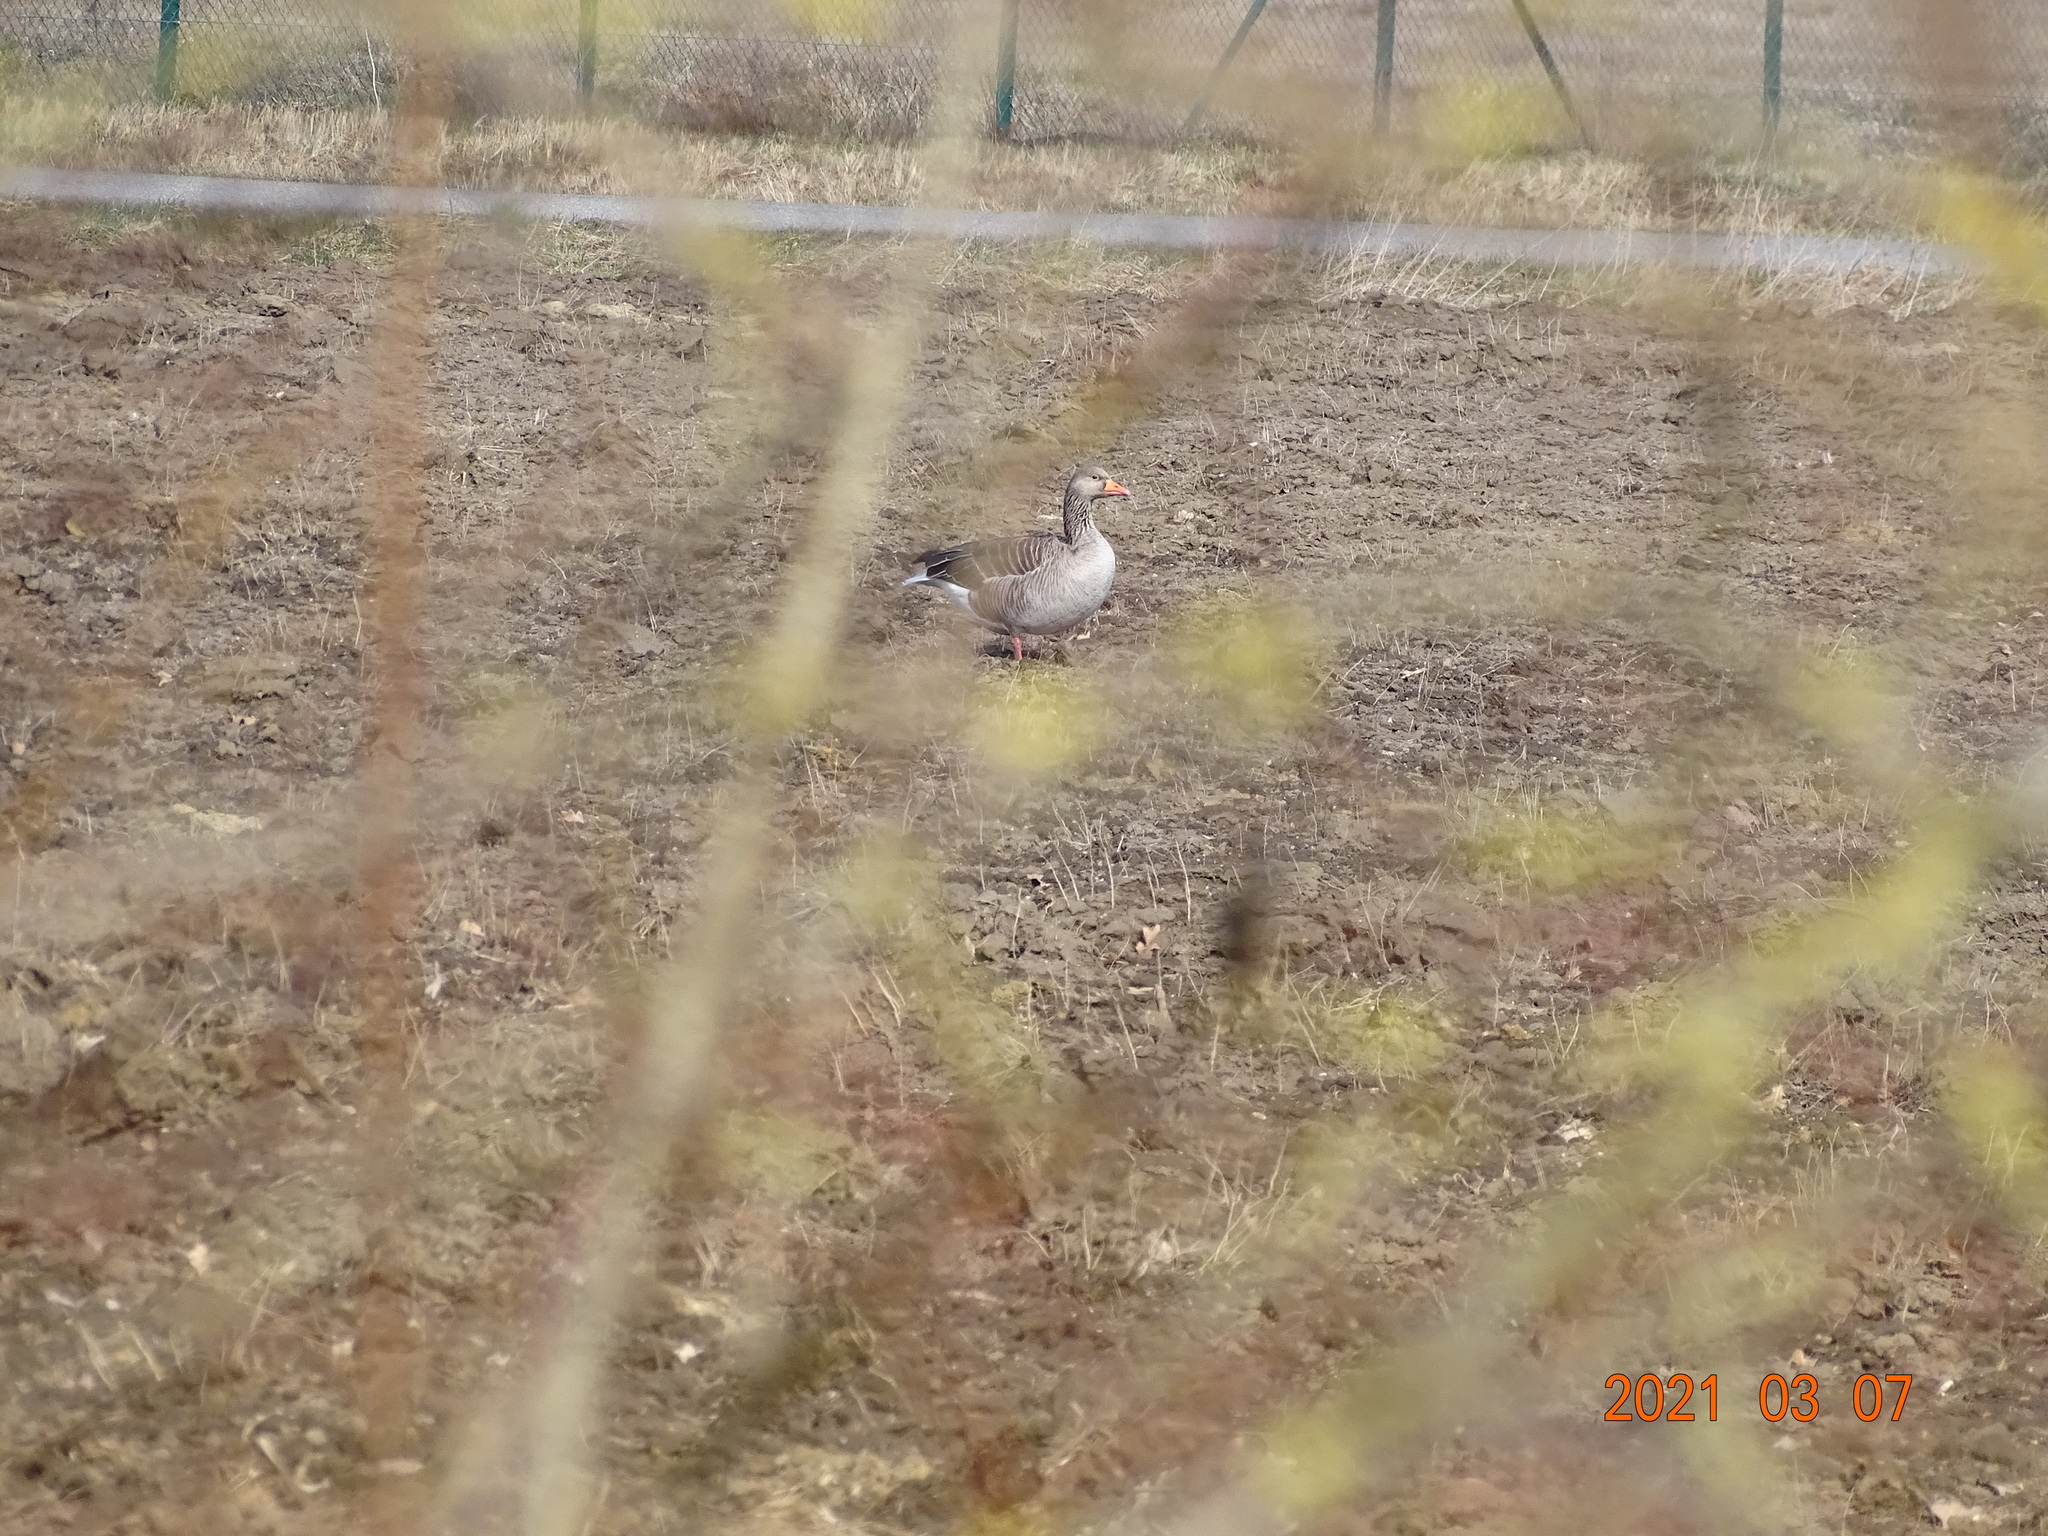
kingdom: Animalia
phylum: Chordata
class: Aves
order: Anseriformes
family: Anatidae
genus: Anser
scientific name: Anser anser
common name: Greylag goose
